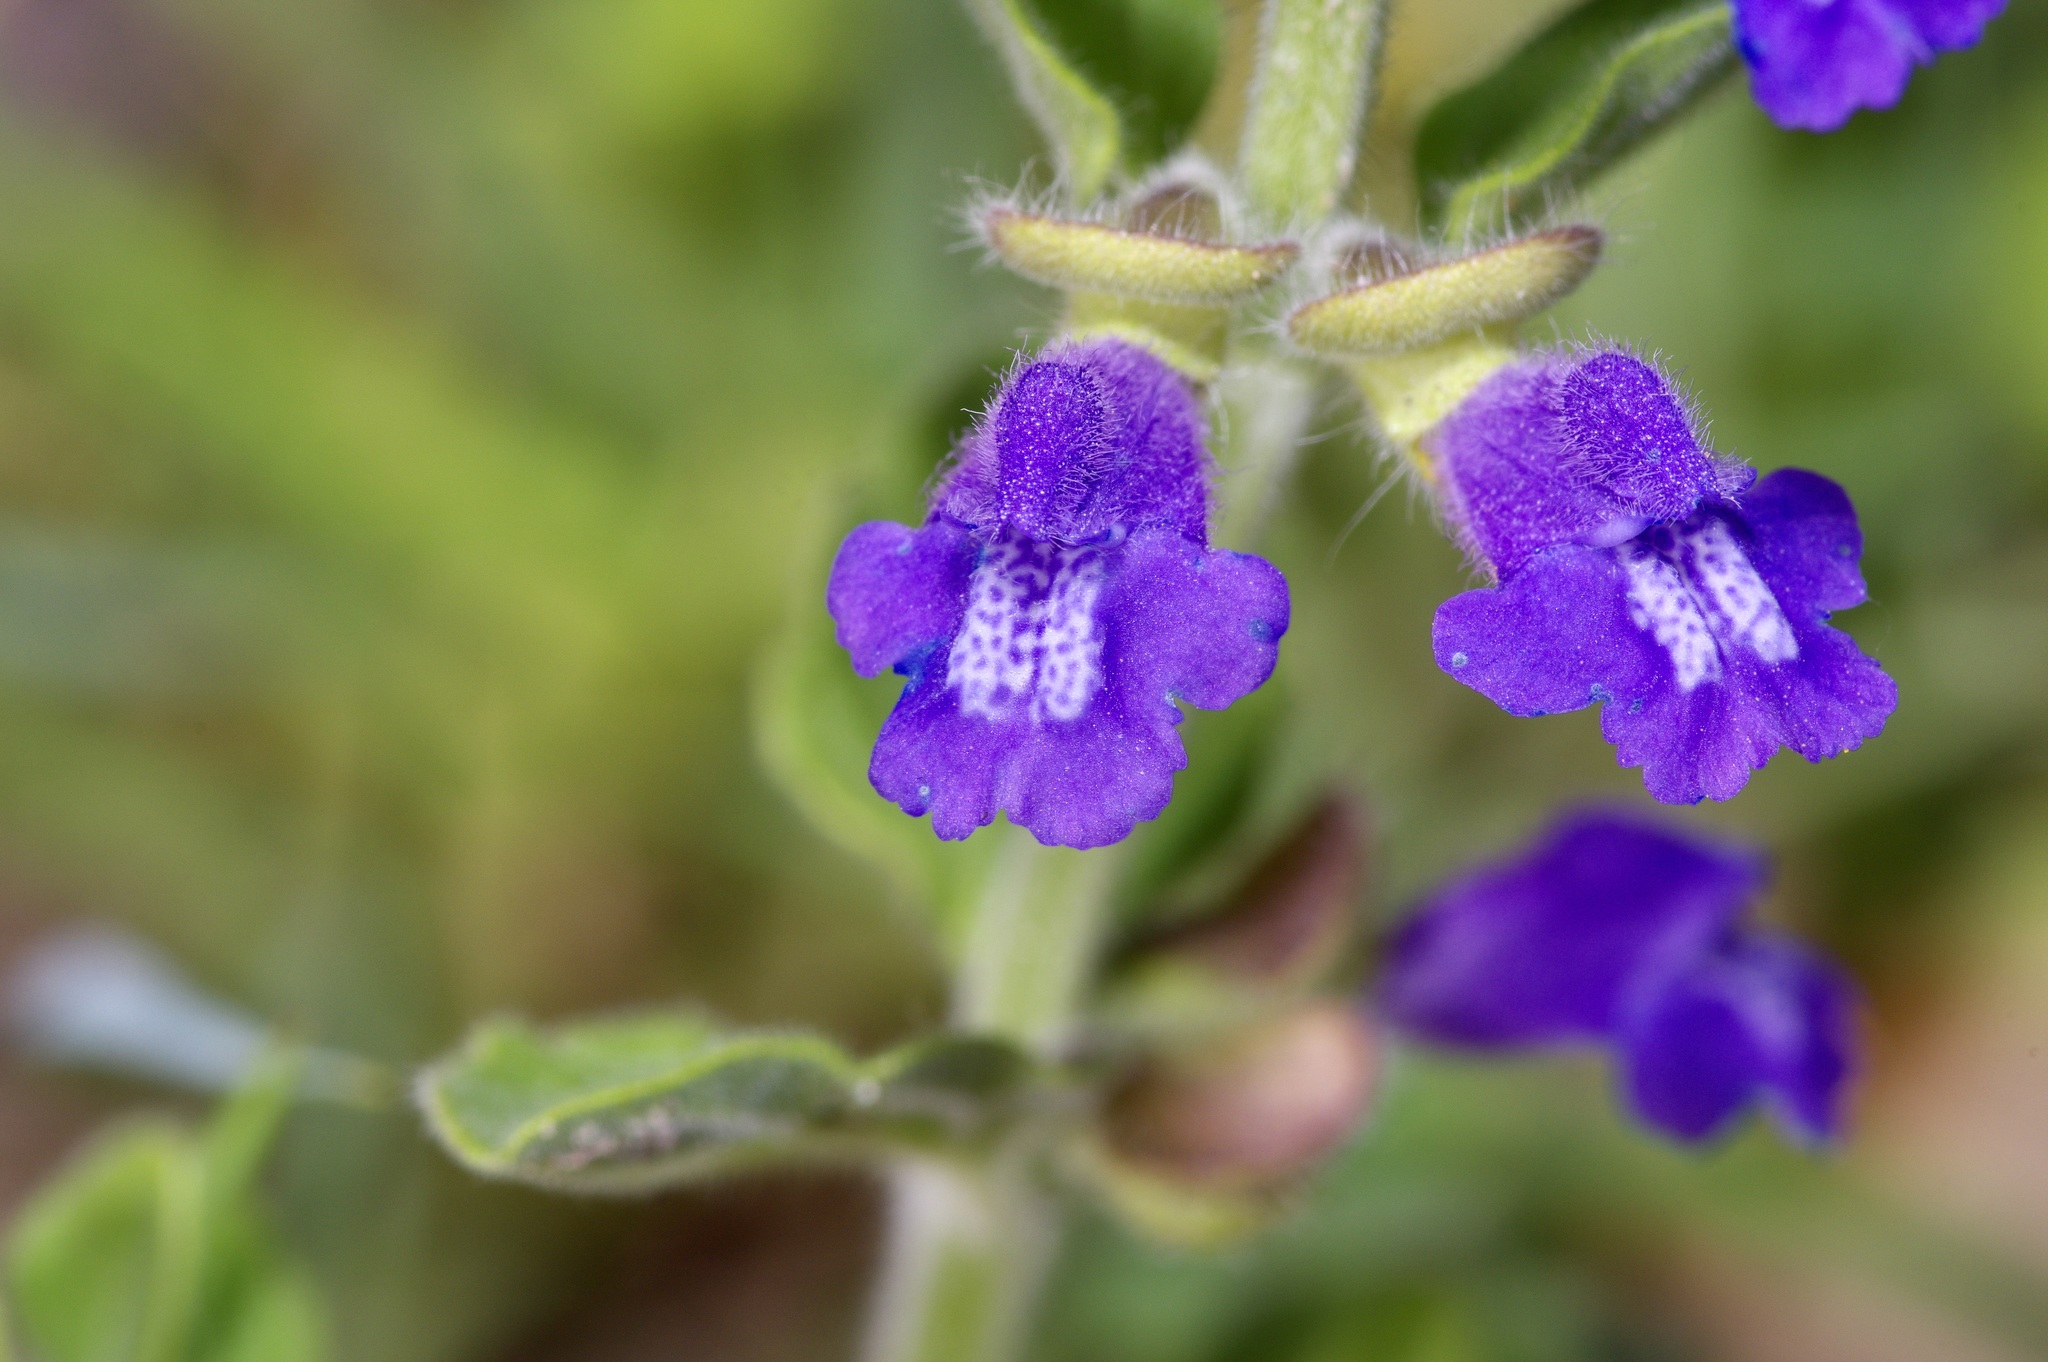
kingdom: Plantae
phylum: Tracheophyta
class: Magnoliopsida
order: Lamiales
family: Lamiaceae
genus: Scutellaria
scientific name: Scutellaria drummondii
